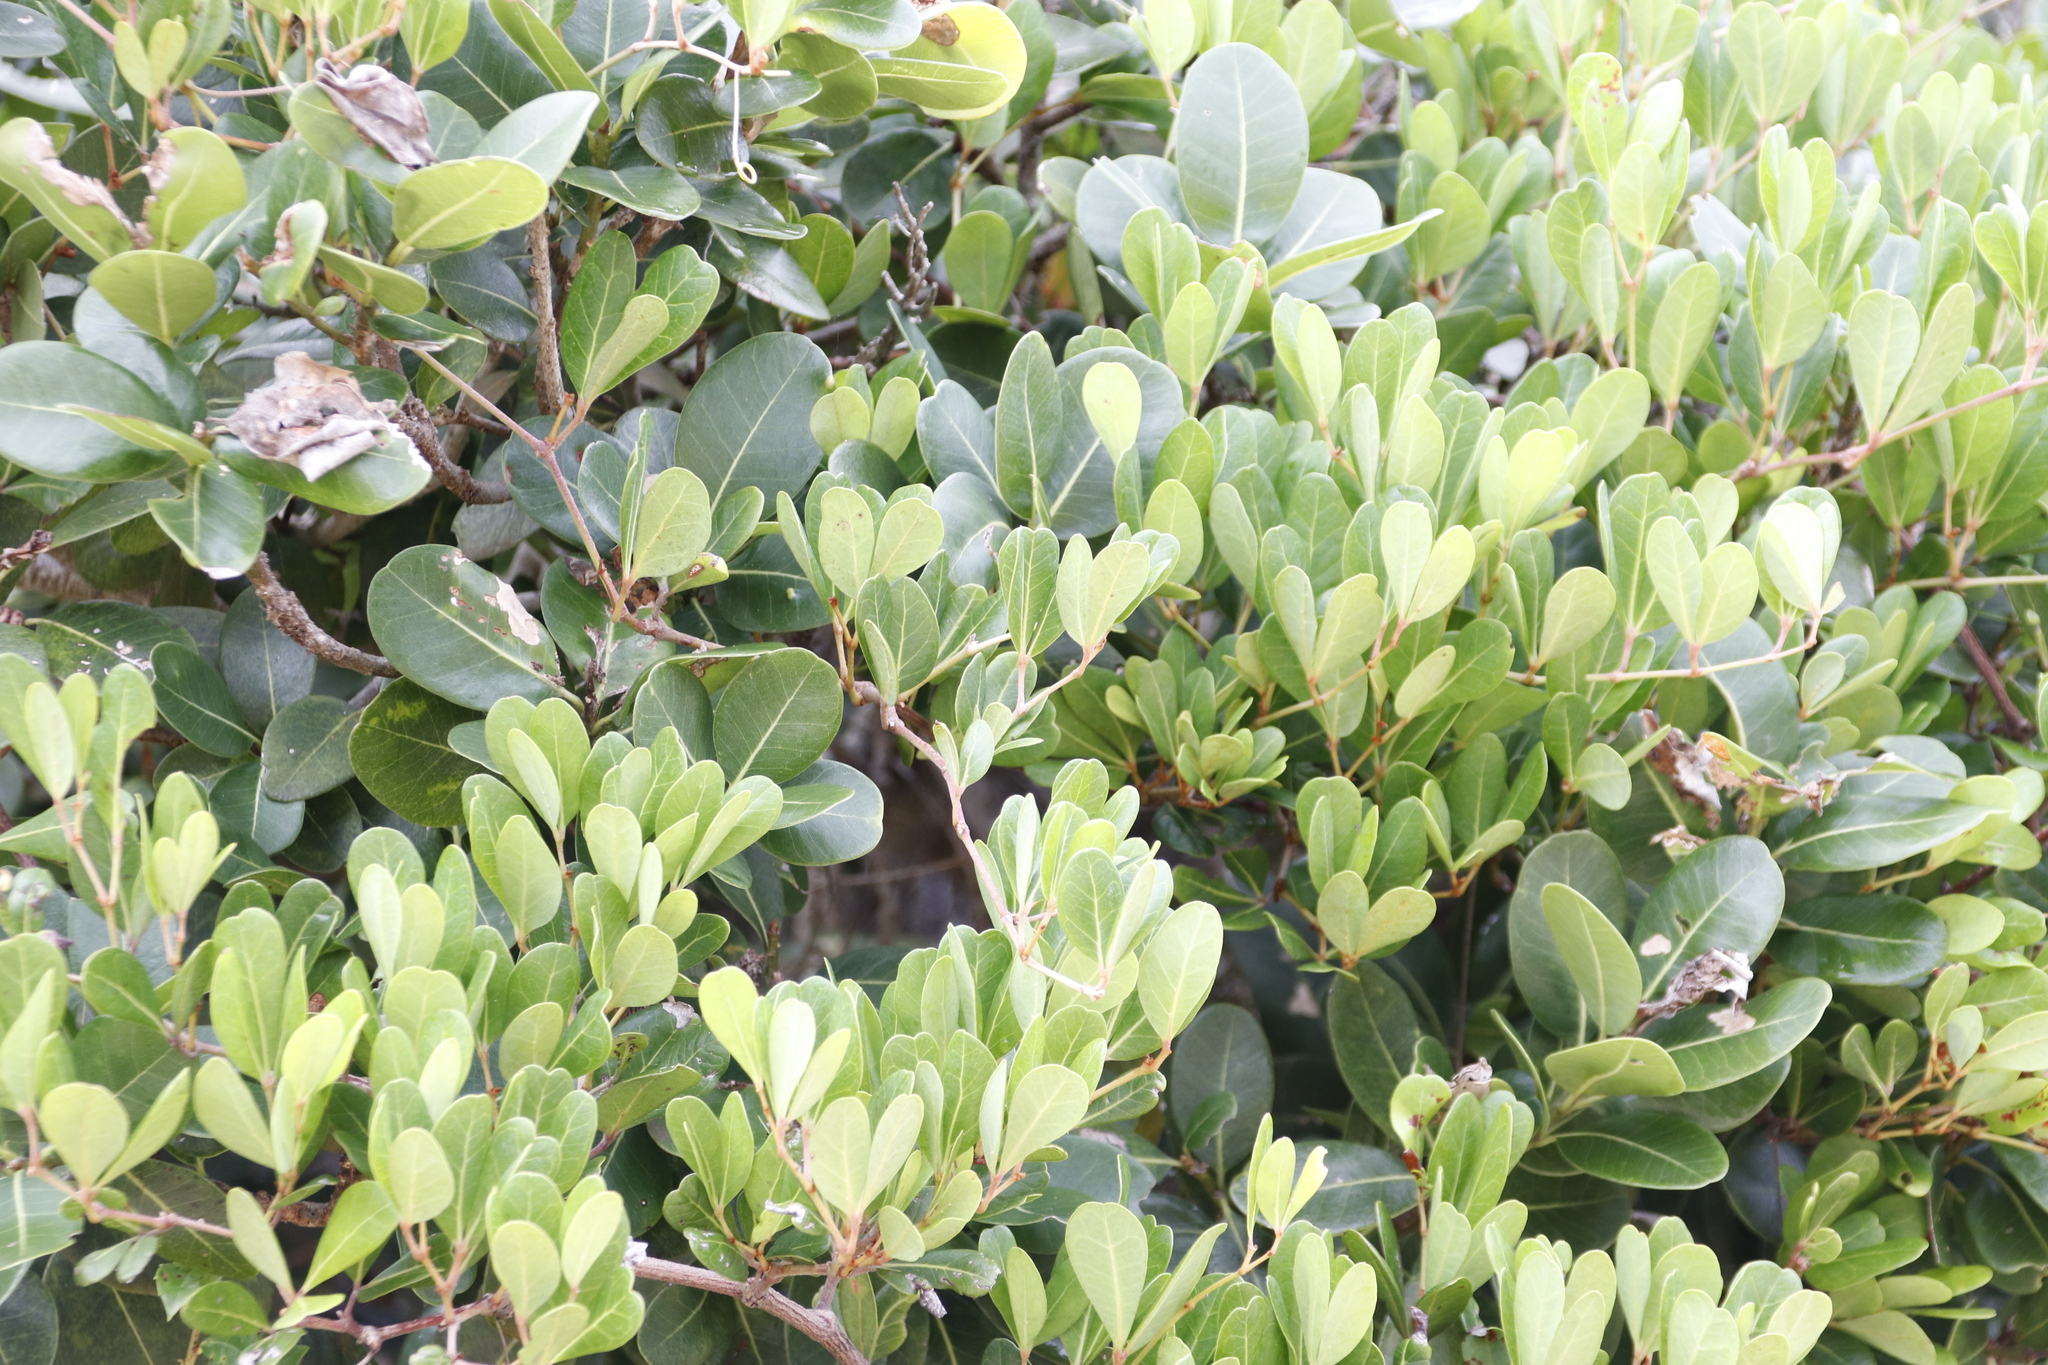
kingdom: Plantae
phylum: Tracheophyta
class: Magnoliopsida
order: Vitales
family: Vitaceae
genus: Rhoicissus
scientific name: Rhoicissus digitata
